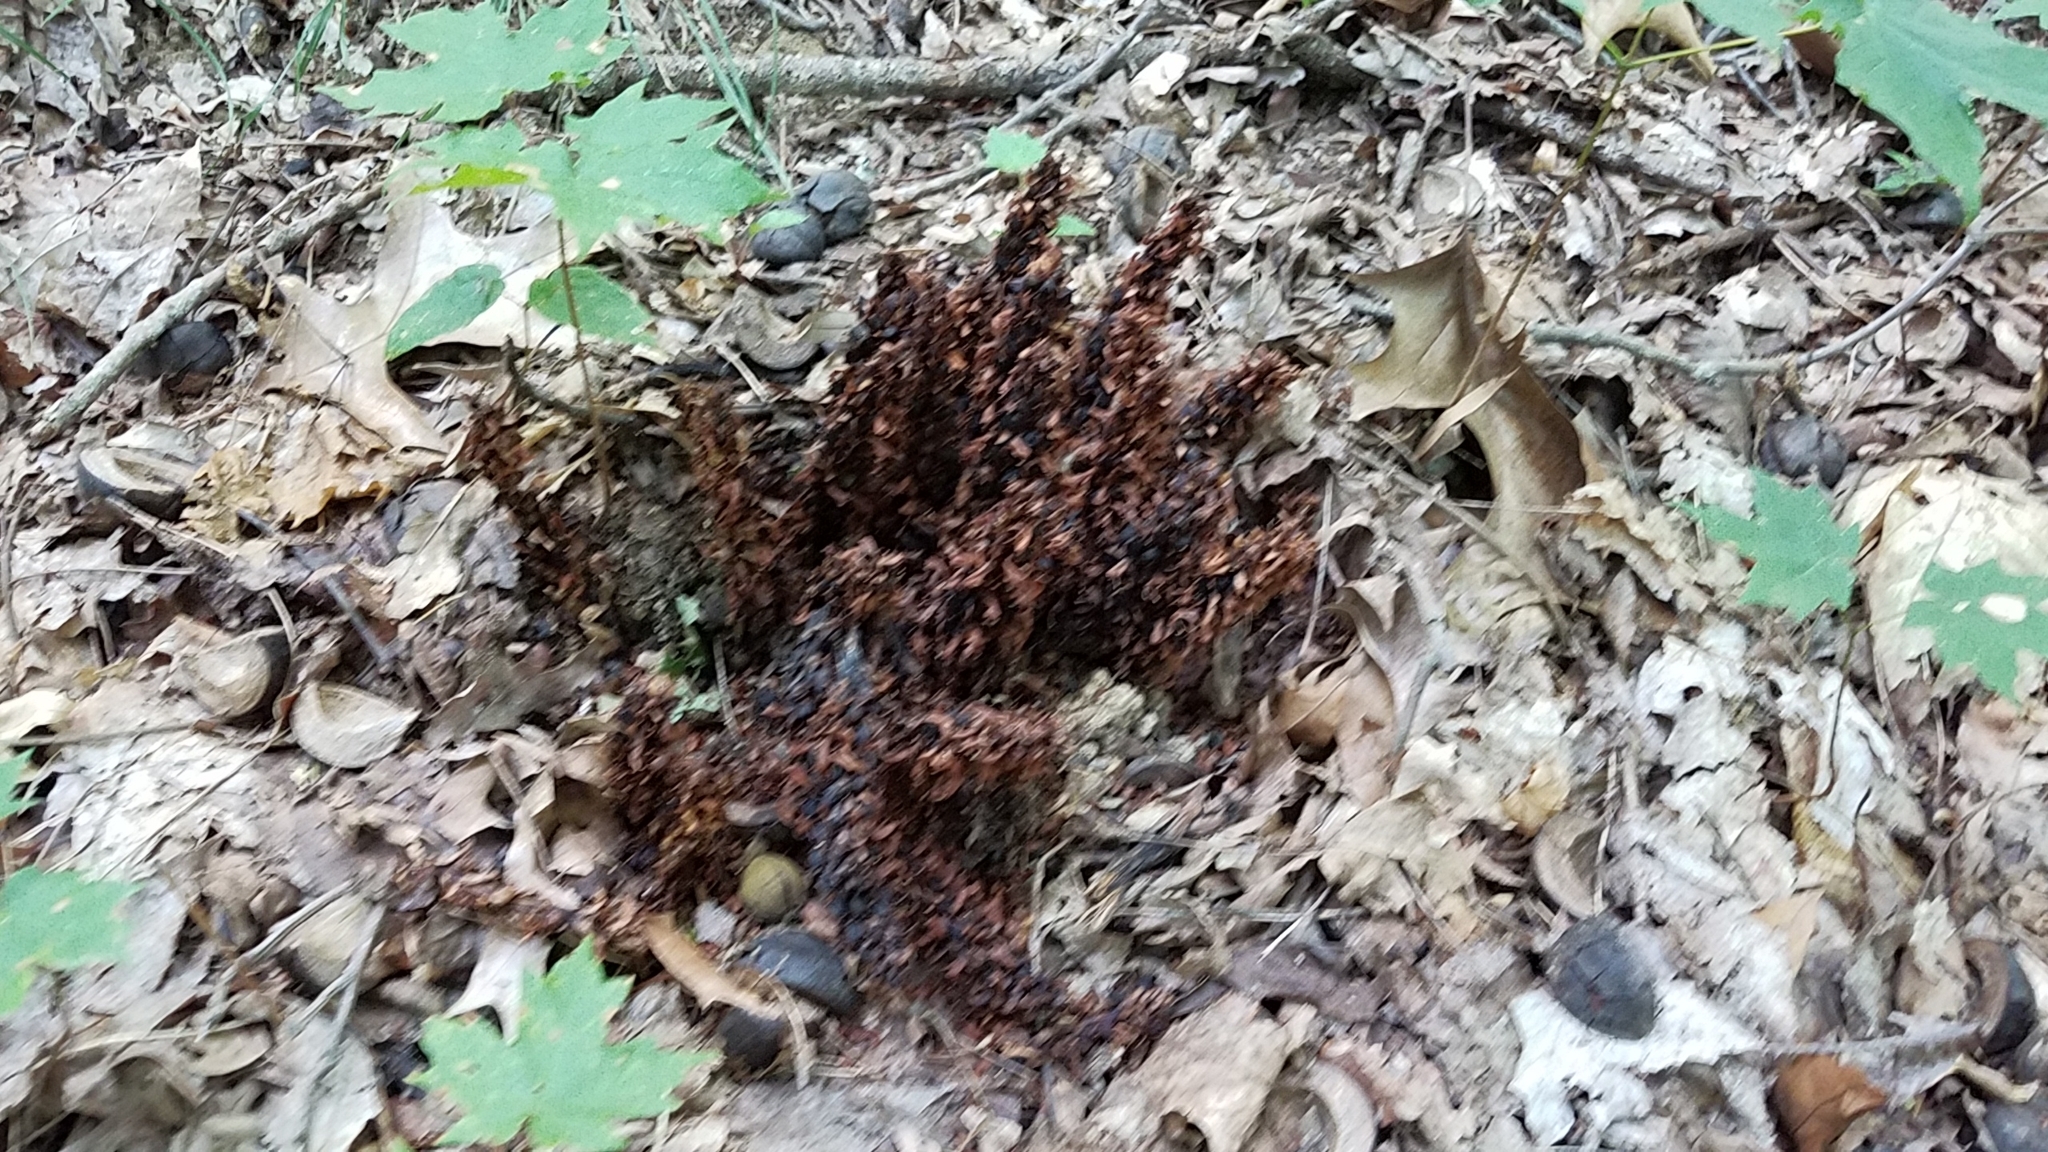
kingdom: Plantae
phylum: Tracheophyta
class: Magnoliopsida
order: Lamiales
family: Orobanchaceae
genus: Conopholis
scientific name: Conopholis americana
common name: American cancer-root
